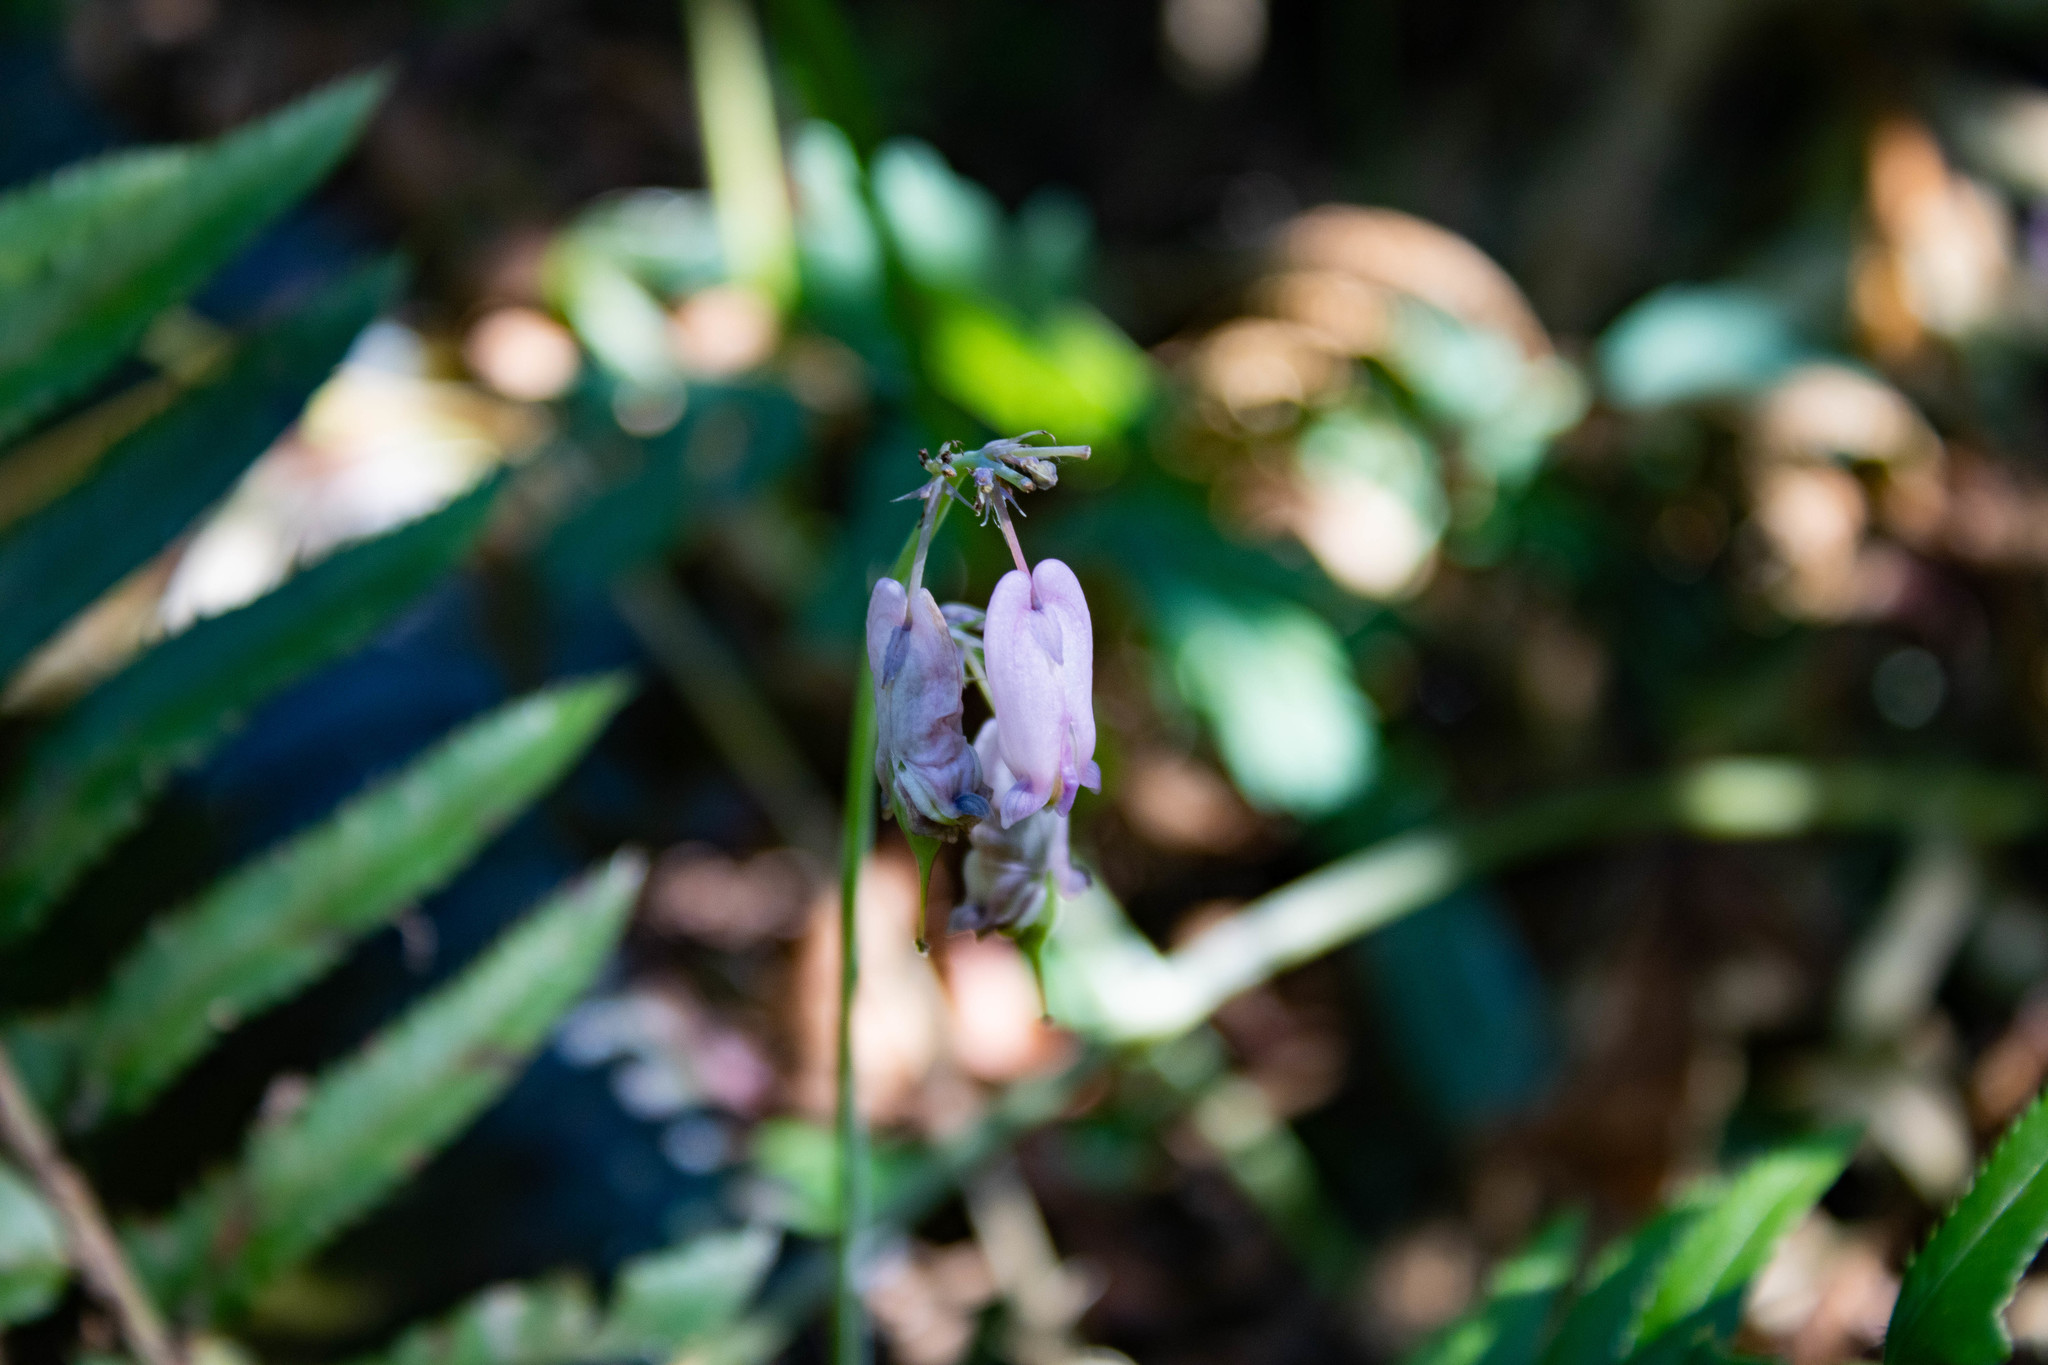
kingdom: Plantae
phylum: Tracheophyta
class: Magnoliopsida
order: Ranunculales
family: Papaveraceae
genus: Dicentra
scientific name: Dicentra formosa
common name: Bleeding-heart
